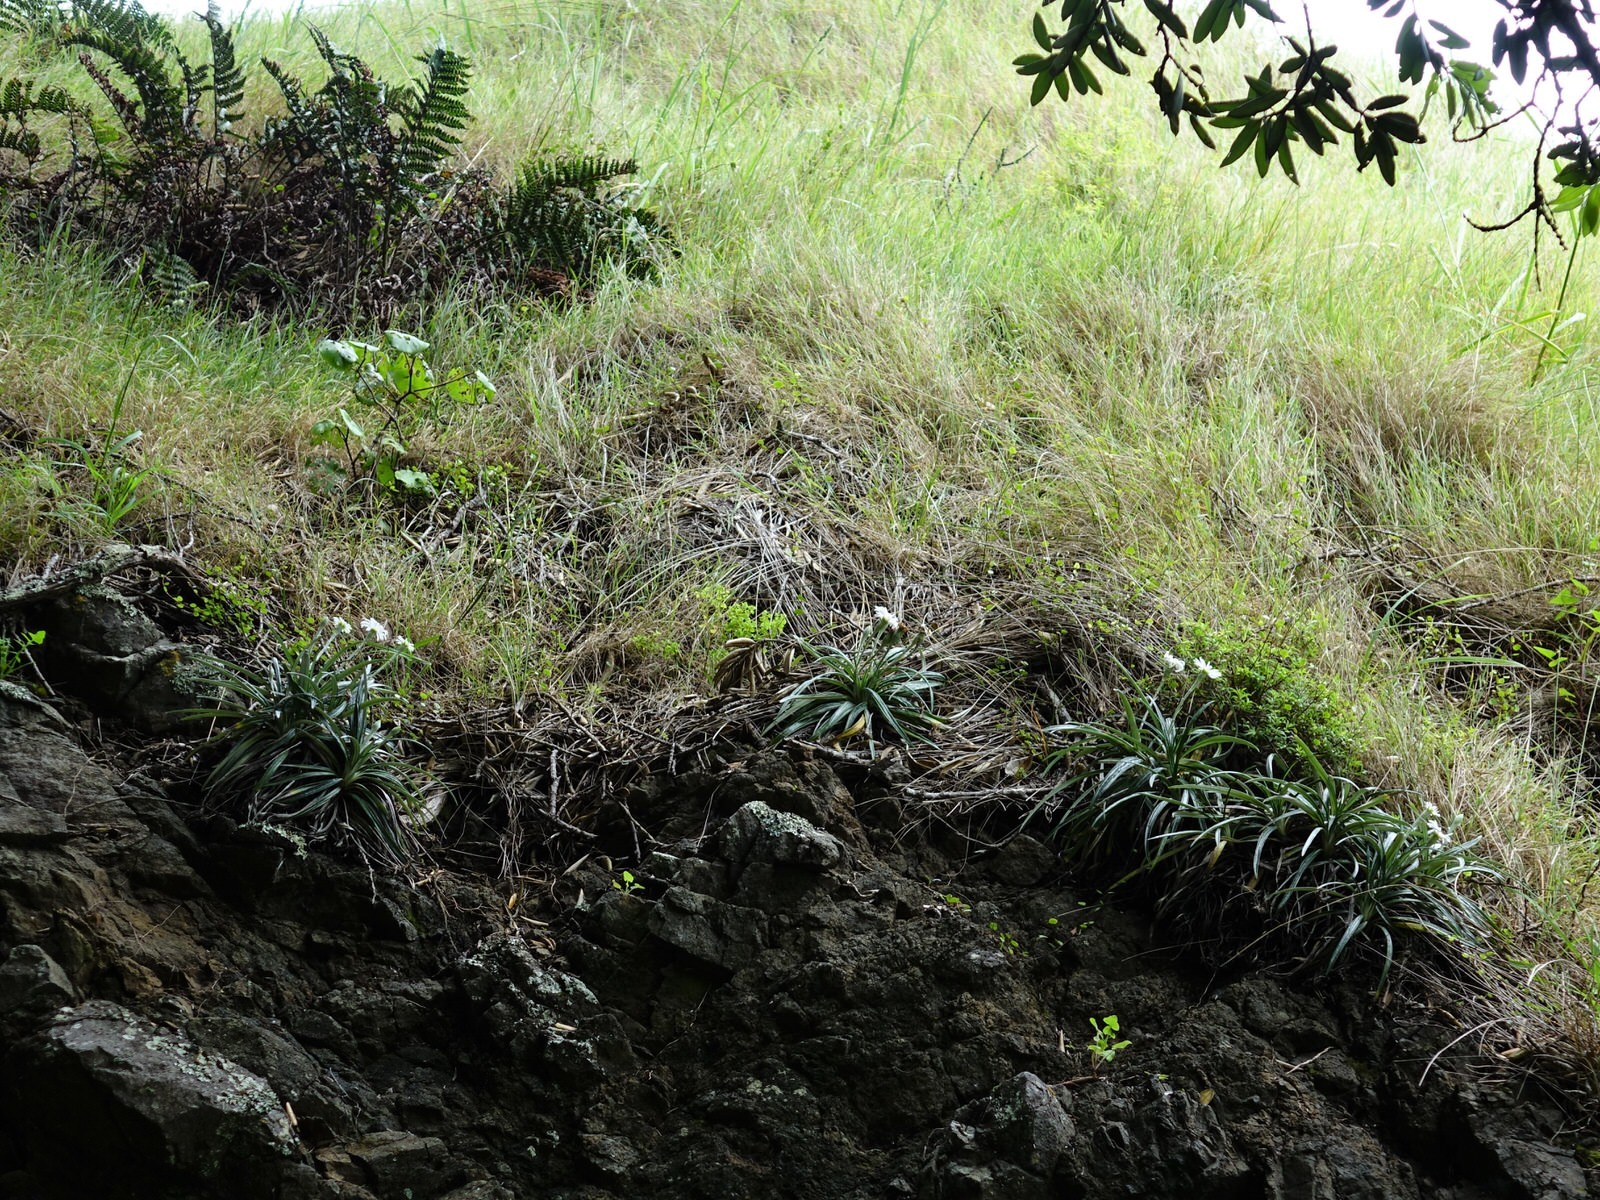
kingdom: Plantae
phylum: Tracheophyta
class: Magnoliopsida
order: Asterales
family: Asteraceae
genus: Celmisia
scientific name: Celmisia major
